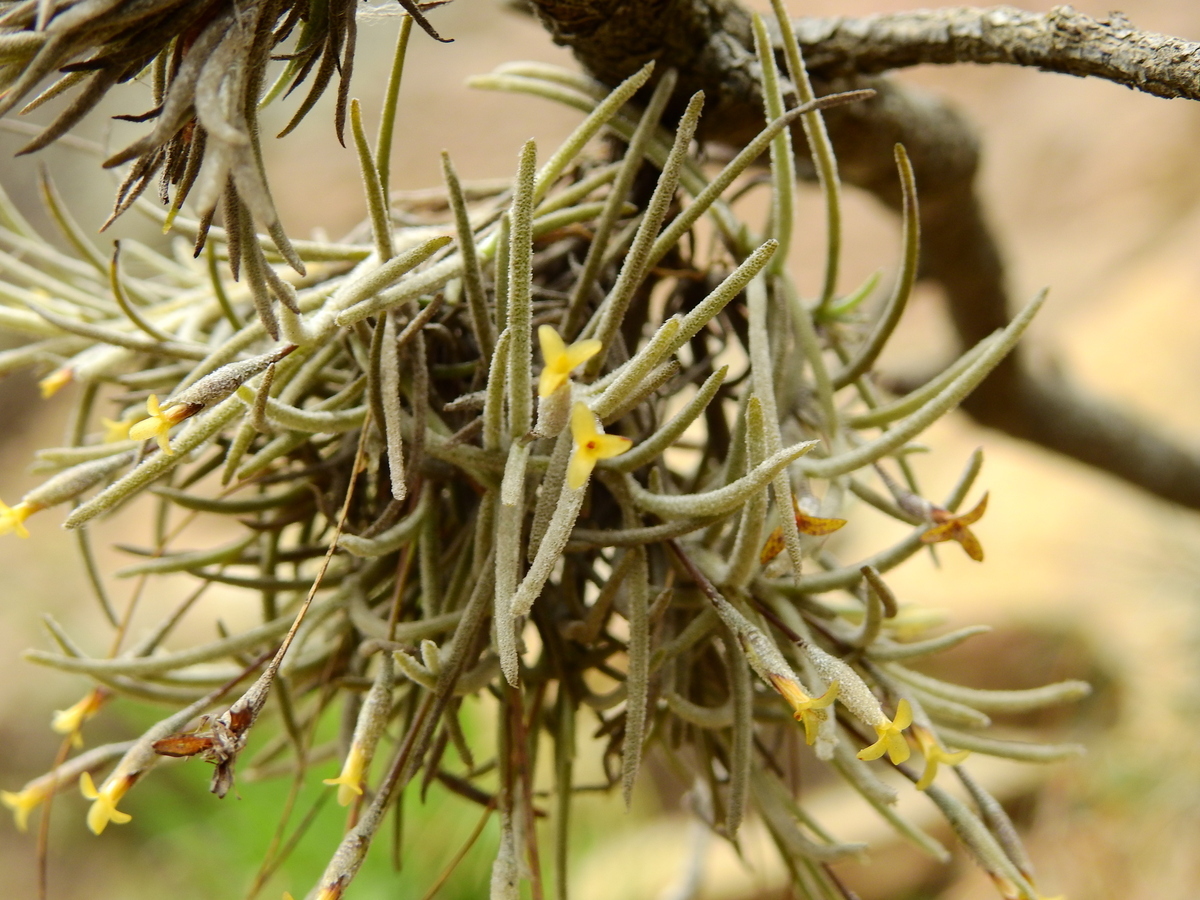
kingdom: Plantae
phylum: Tracheophyta
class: Liliopsida
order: Poales
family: Bromeliaceae
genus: Tillandsia
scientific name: Tillandsia virescens
